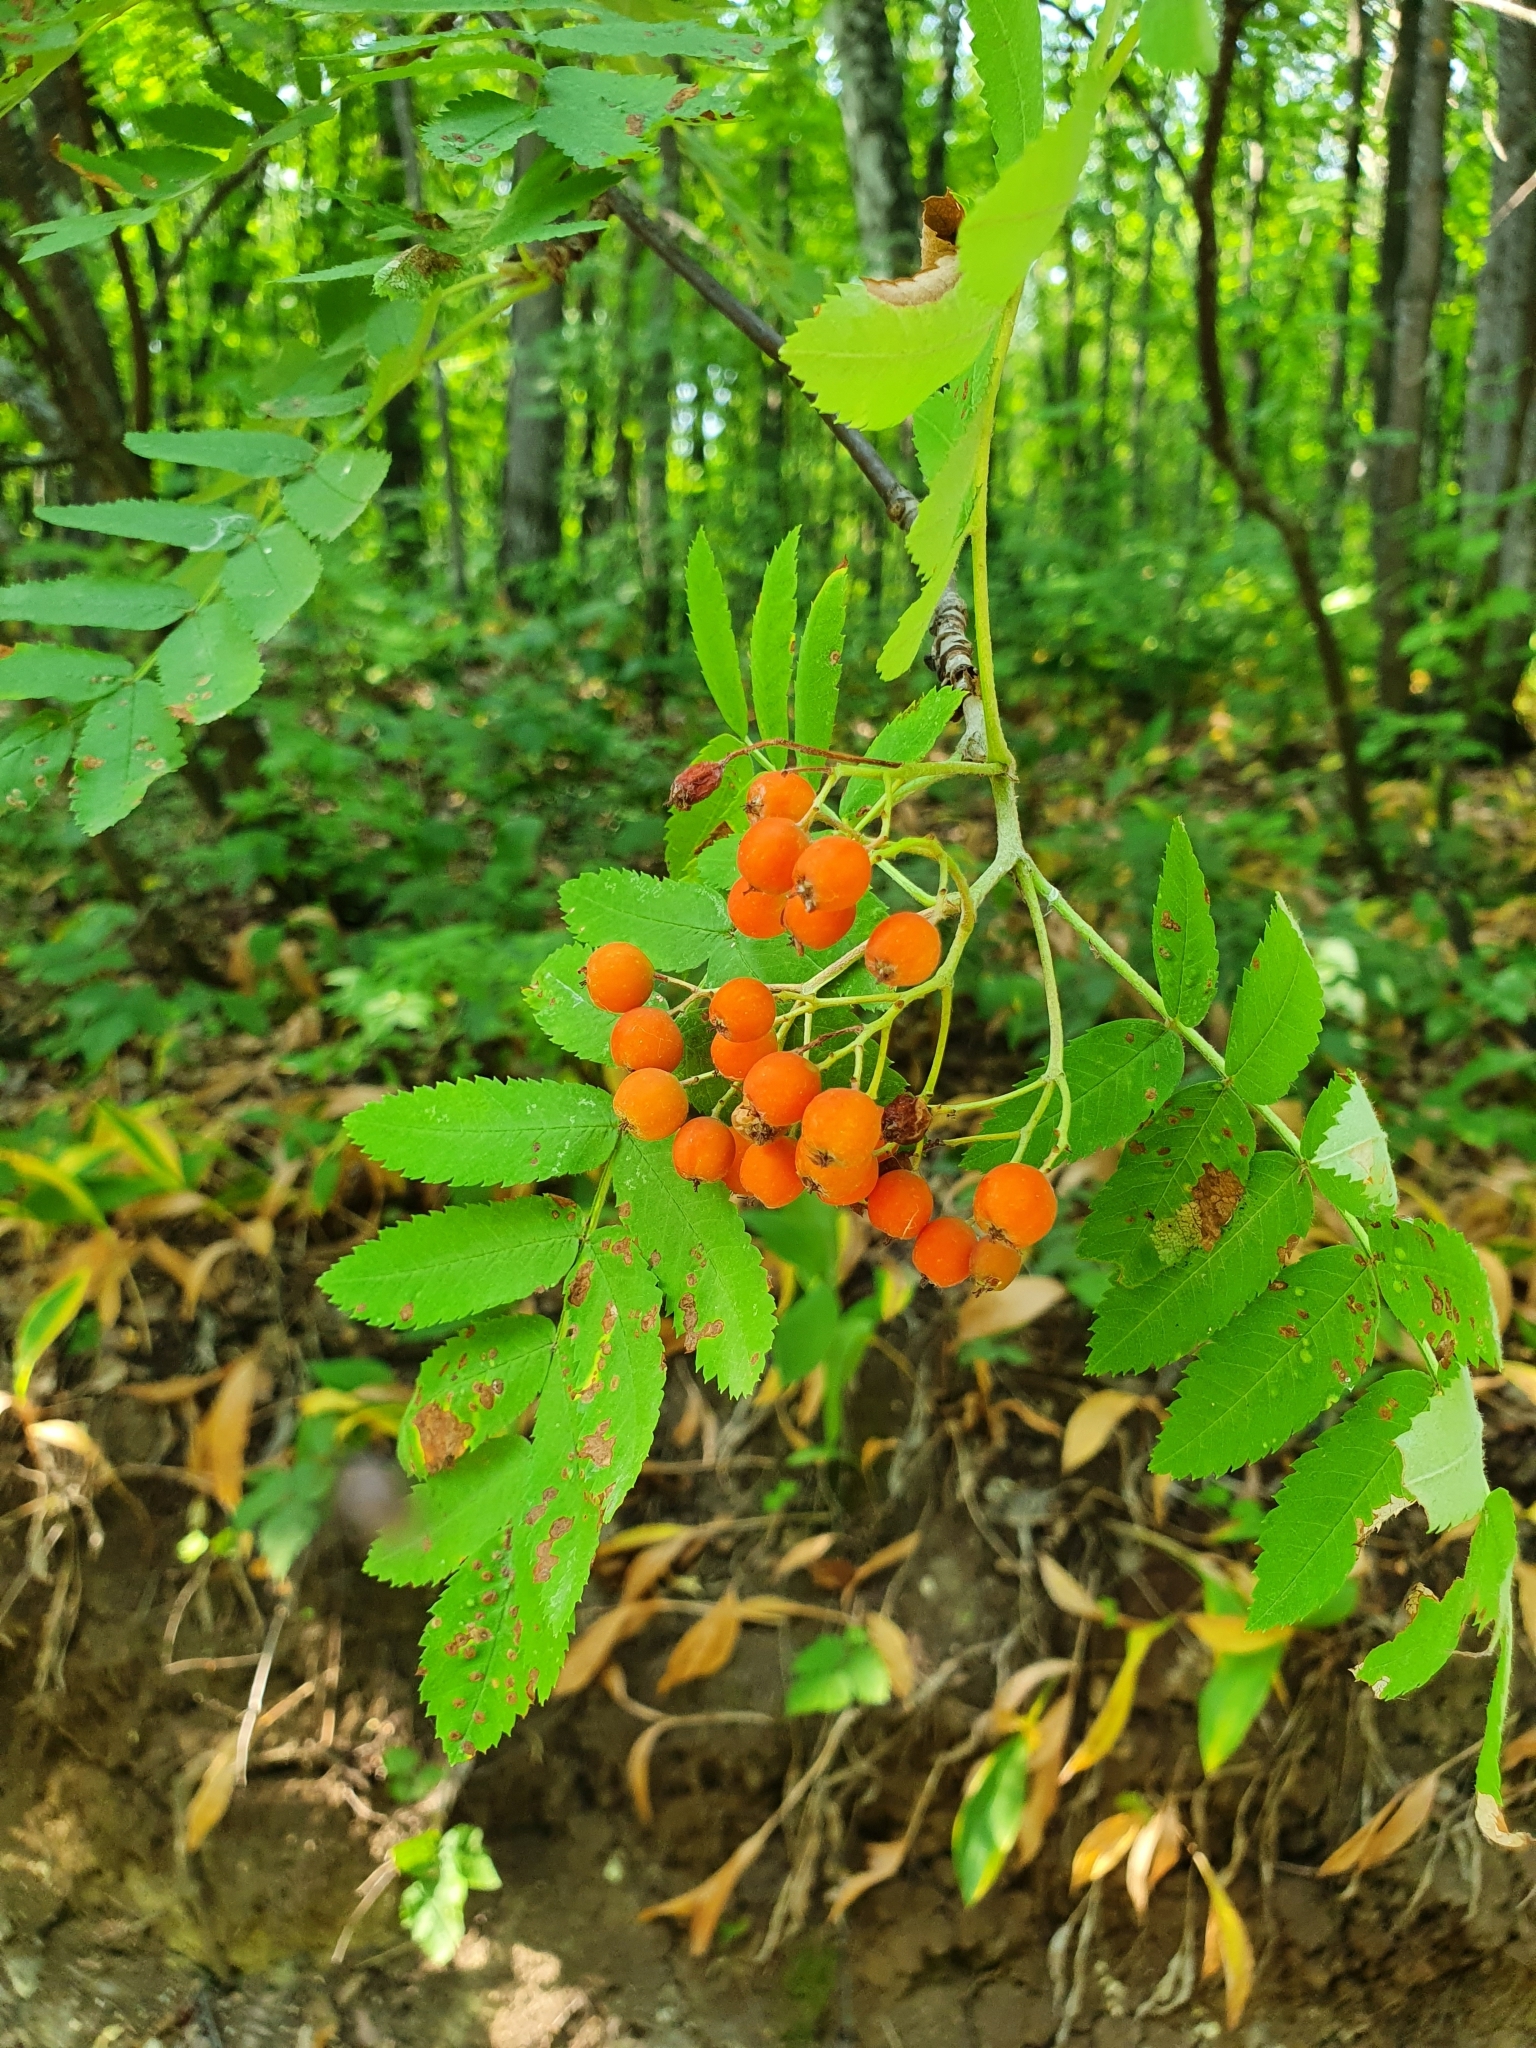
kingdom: Plantae
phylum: Tracheophyta
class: Magnoliopsida
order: Rosales
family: Rosaceae
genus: Sorbus
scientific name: Sorbus aucuparia
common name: Rowan
